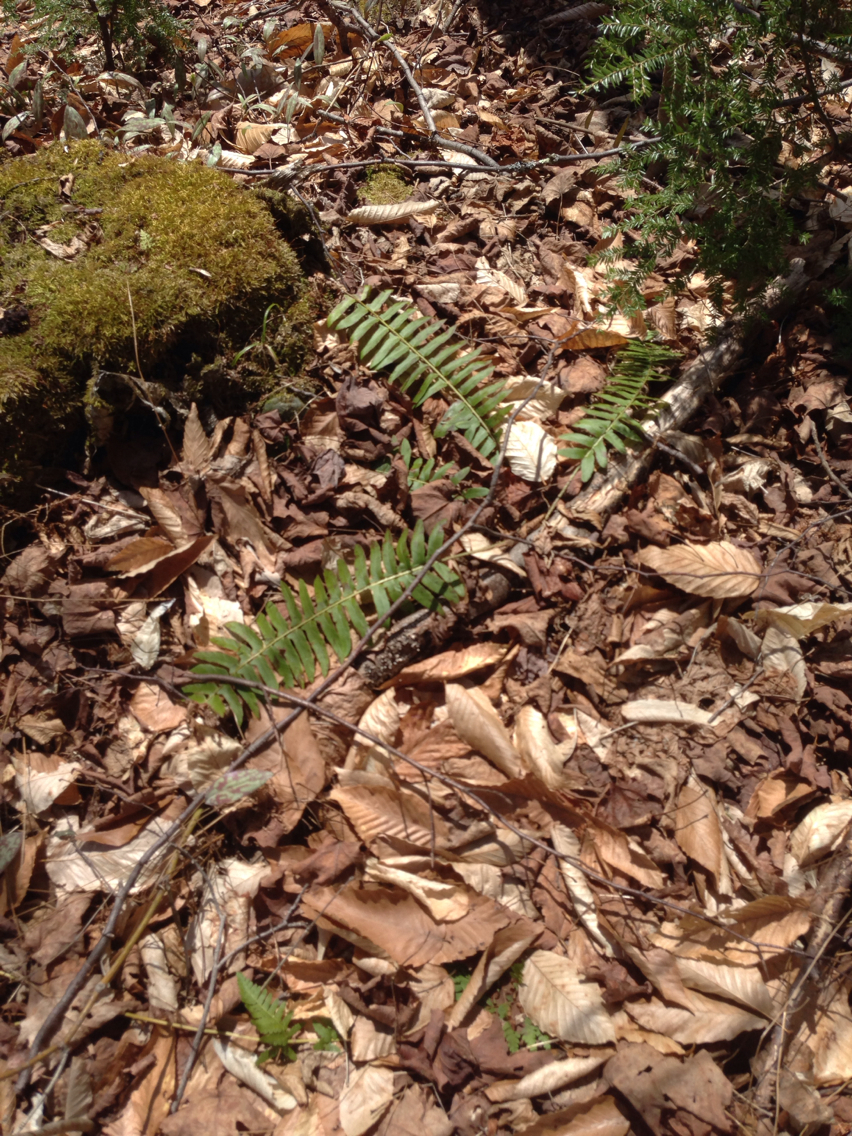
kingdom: Plantae
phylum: Tracheophyta
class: Polypodiopsida
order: Polypodiales
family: Dryopteridaceae
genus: Polystichum
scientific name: Polystichum acrostichoides
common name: Christmas fern
